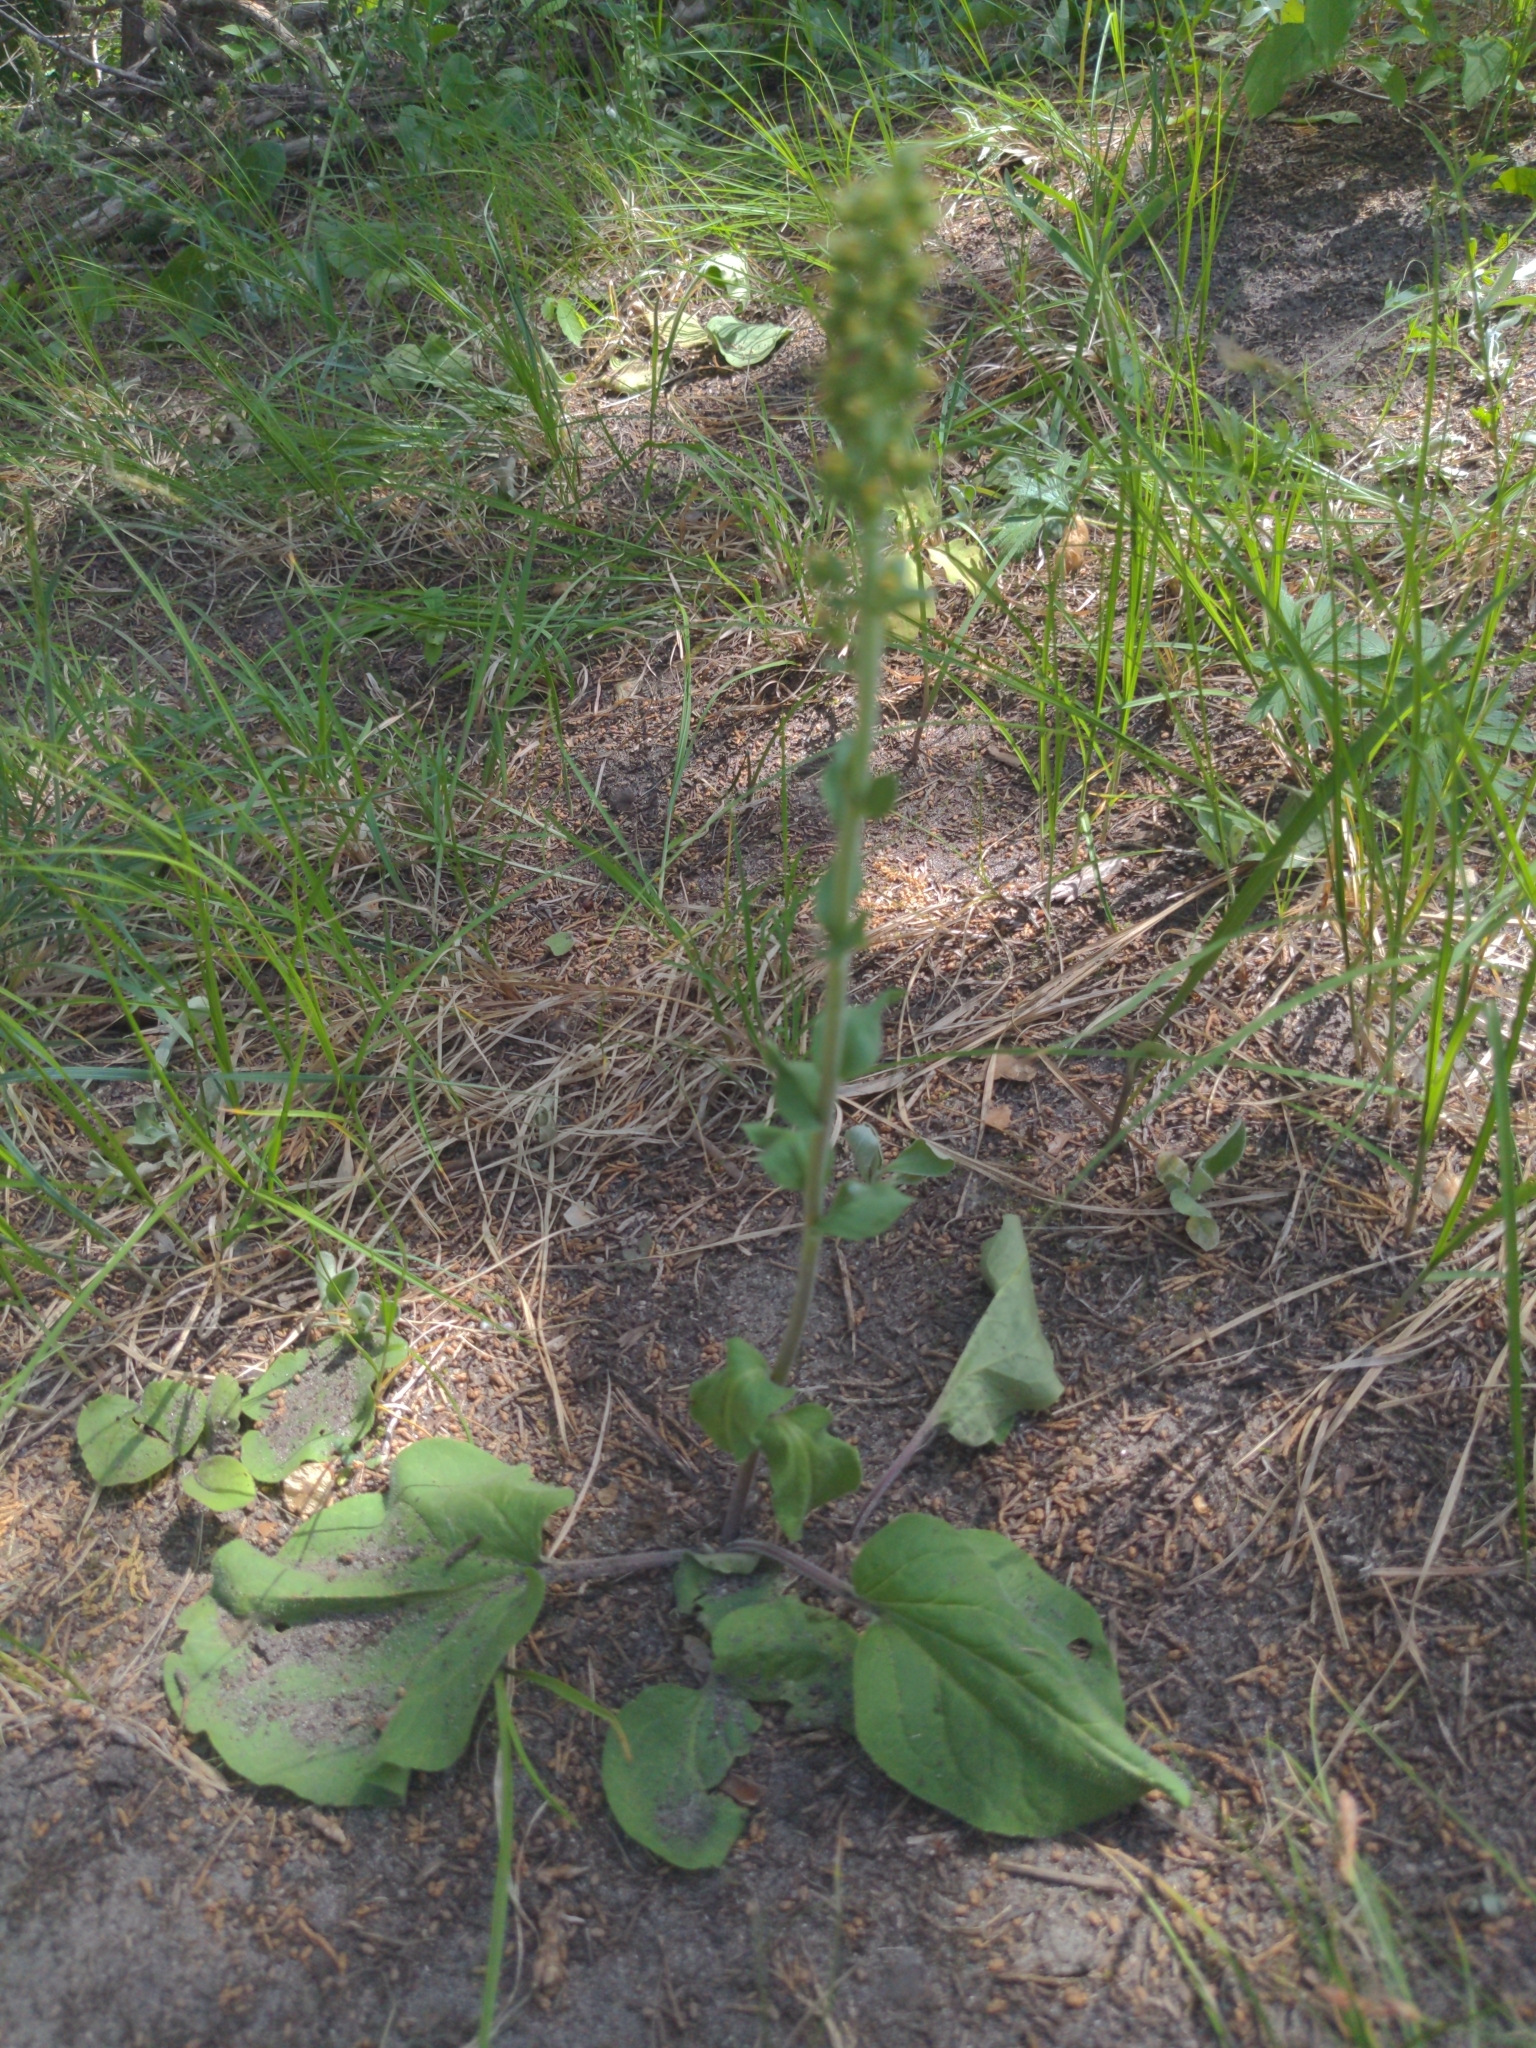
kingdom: Plantae
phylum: Tracheophyta
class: Magnoliopsida
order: Lamiales
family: Plantaginaceae
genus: Synthyris
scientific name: Synthyris bullii
